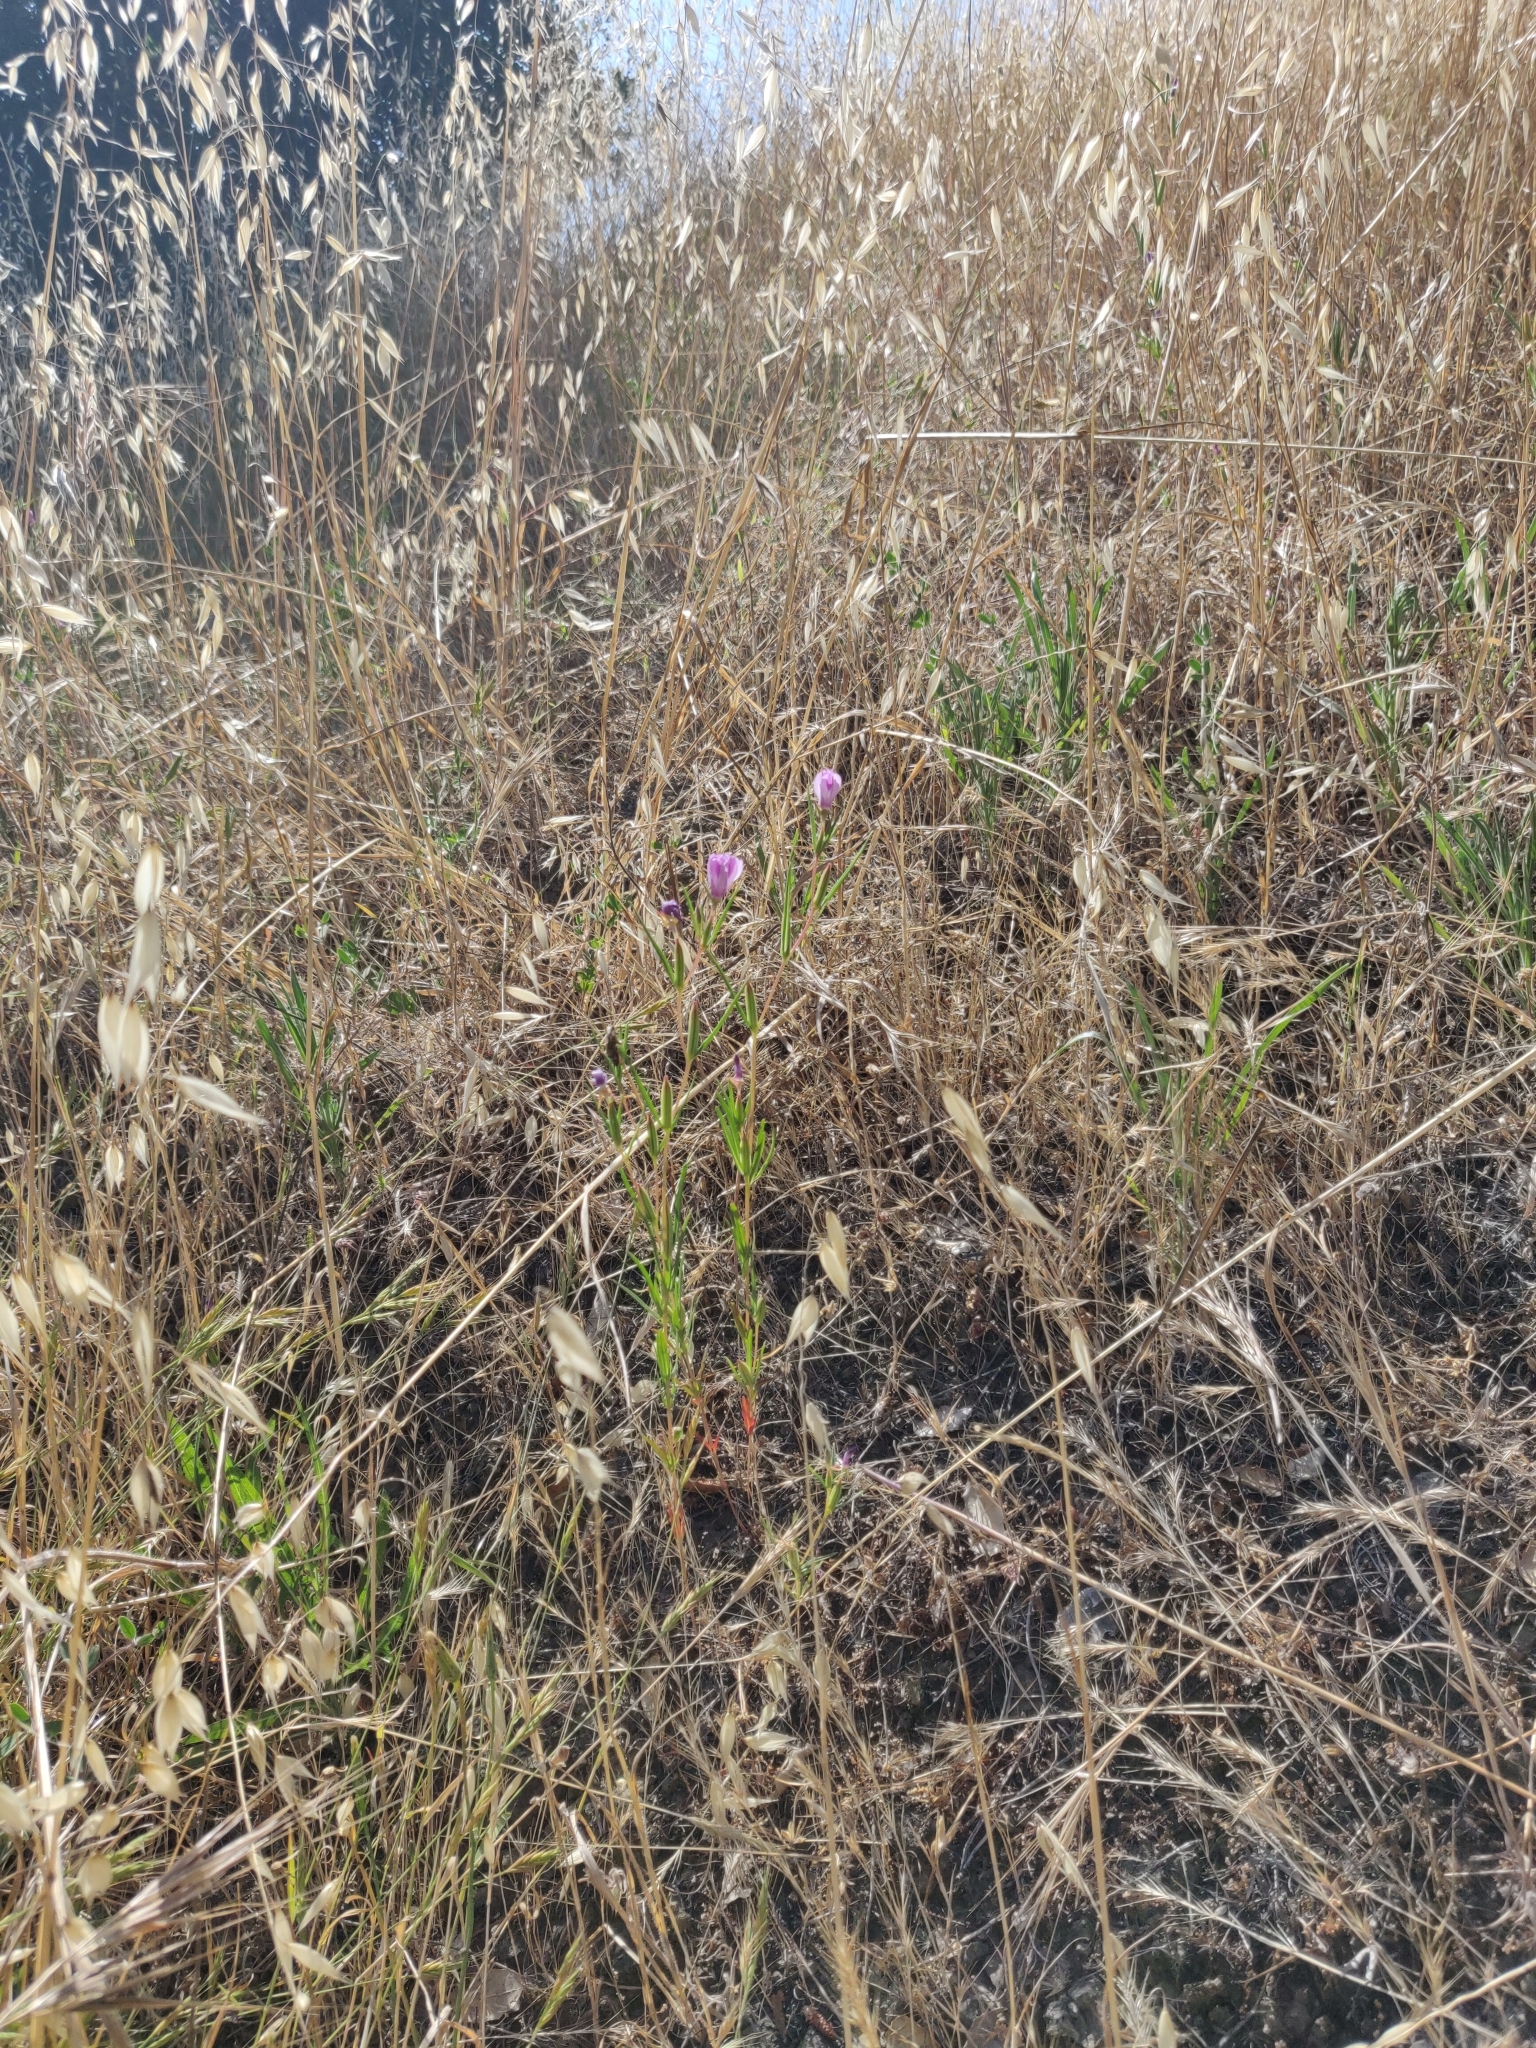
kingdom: Plantae
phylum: Tracheophyta
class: Magnoliopsida
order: Myrtales
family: Onagraceae
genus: Clarkia
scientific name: Clarkia purpurea
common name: Purple clarkia
